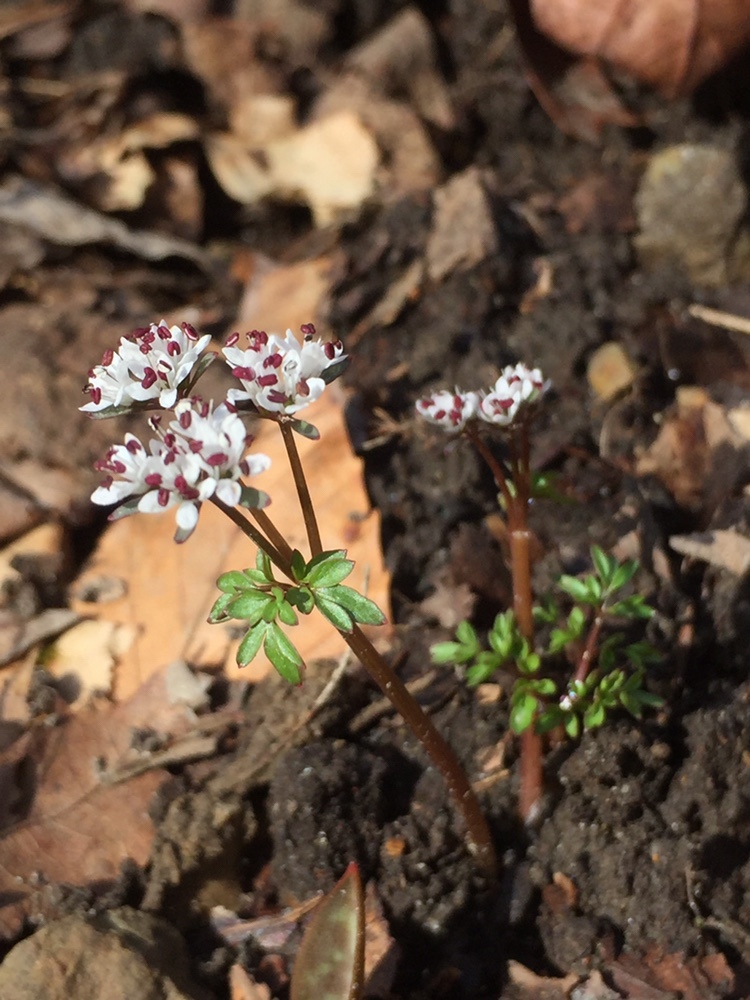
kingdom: Plantae
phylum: Tracheophyta
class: Magnoliopsida
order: Apiales
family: Apiaceae
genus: Erigenia
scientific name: Erigenia bulbosa
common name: Pepper-and-salt
